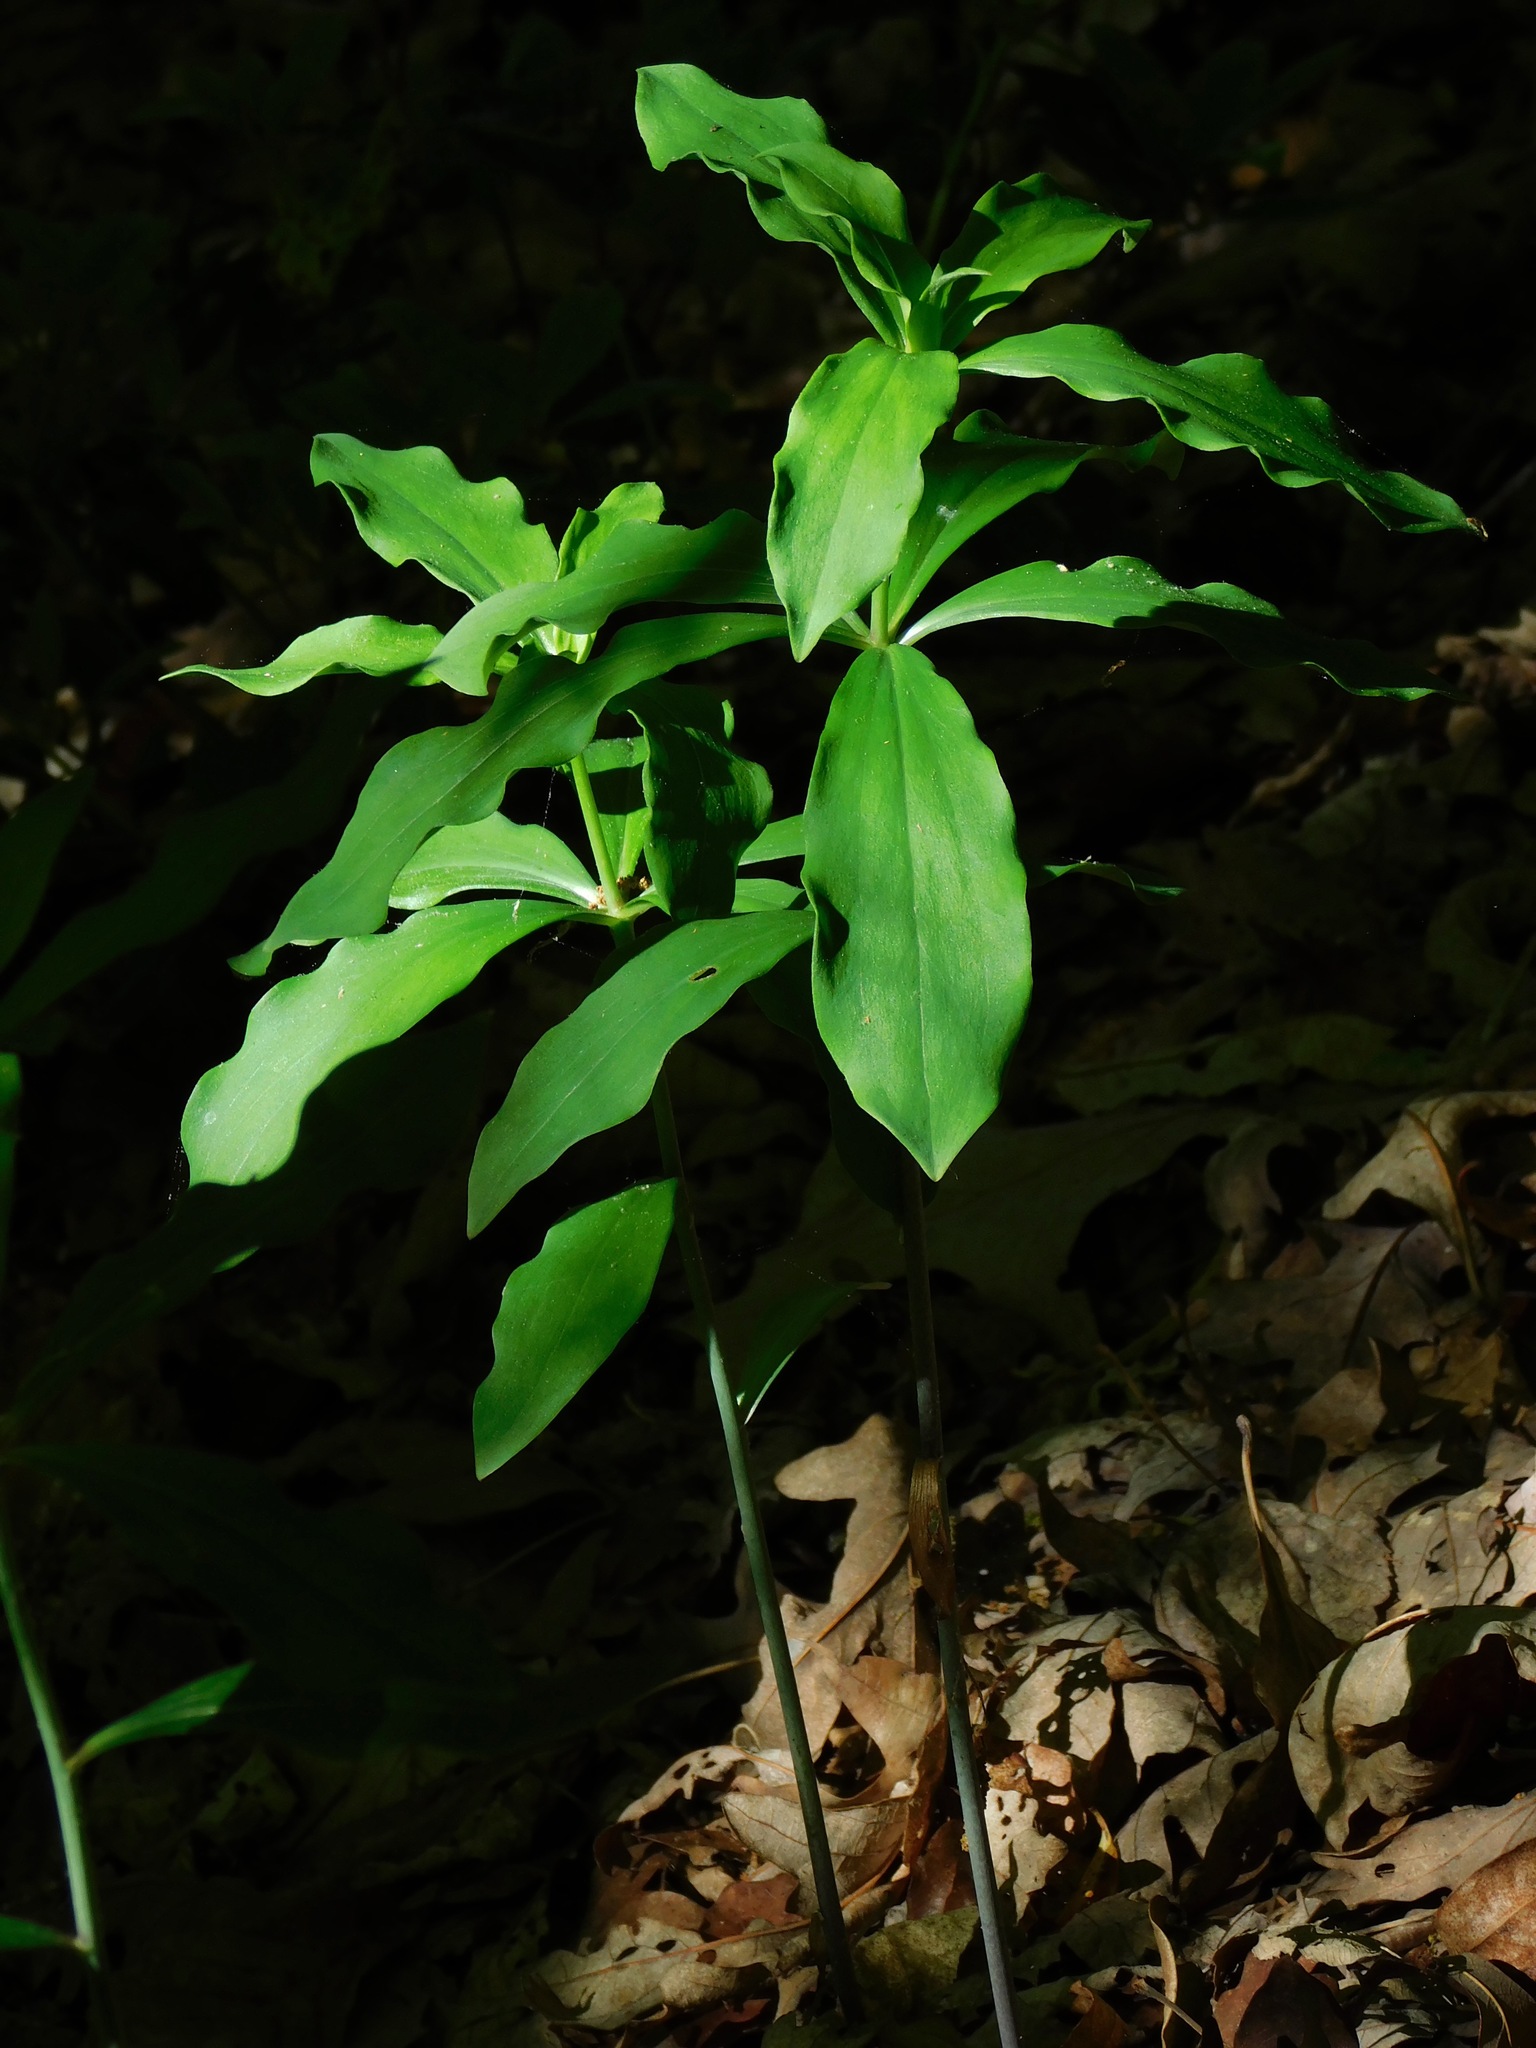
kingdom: Plantae
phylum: Tracheophyta
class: Liliopsida
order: Liliales
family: Liliaceae
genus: Lilium
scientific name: Lilium michauxii
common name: Carolina lily
